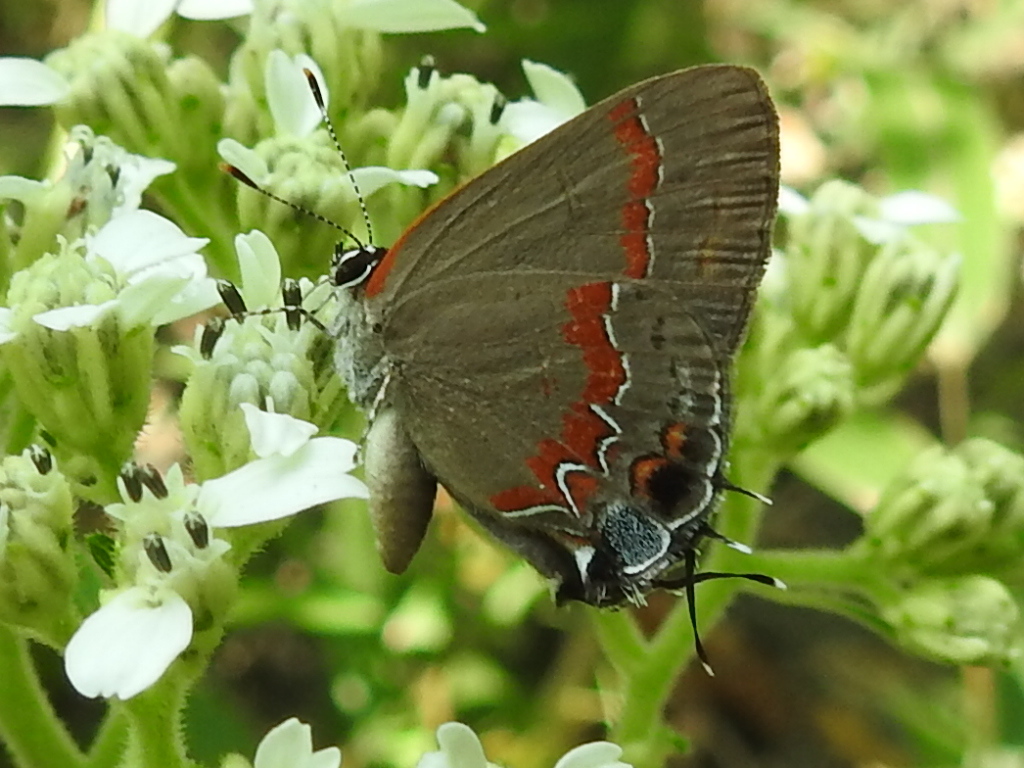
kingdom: Animalia
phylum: Arthropoda
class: Insecta
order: Lepidoptera
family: Lycaenidae
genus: Calycopis
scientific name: Calycopis cecrops
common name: Red-banded hairstreak
